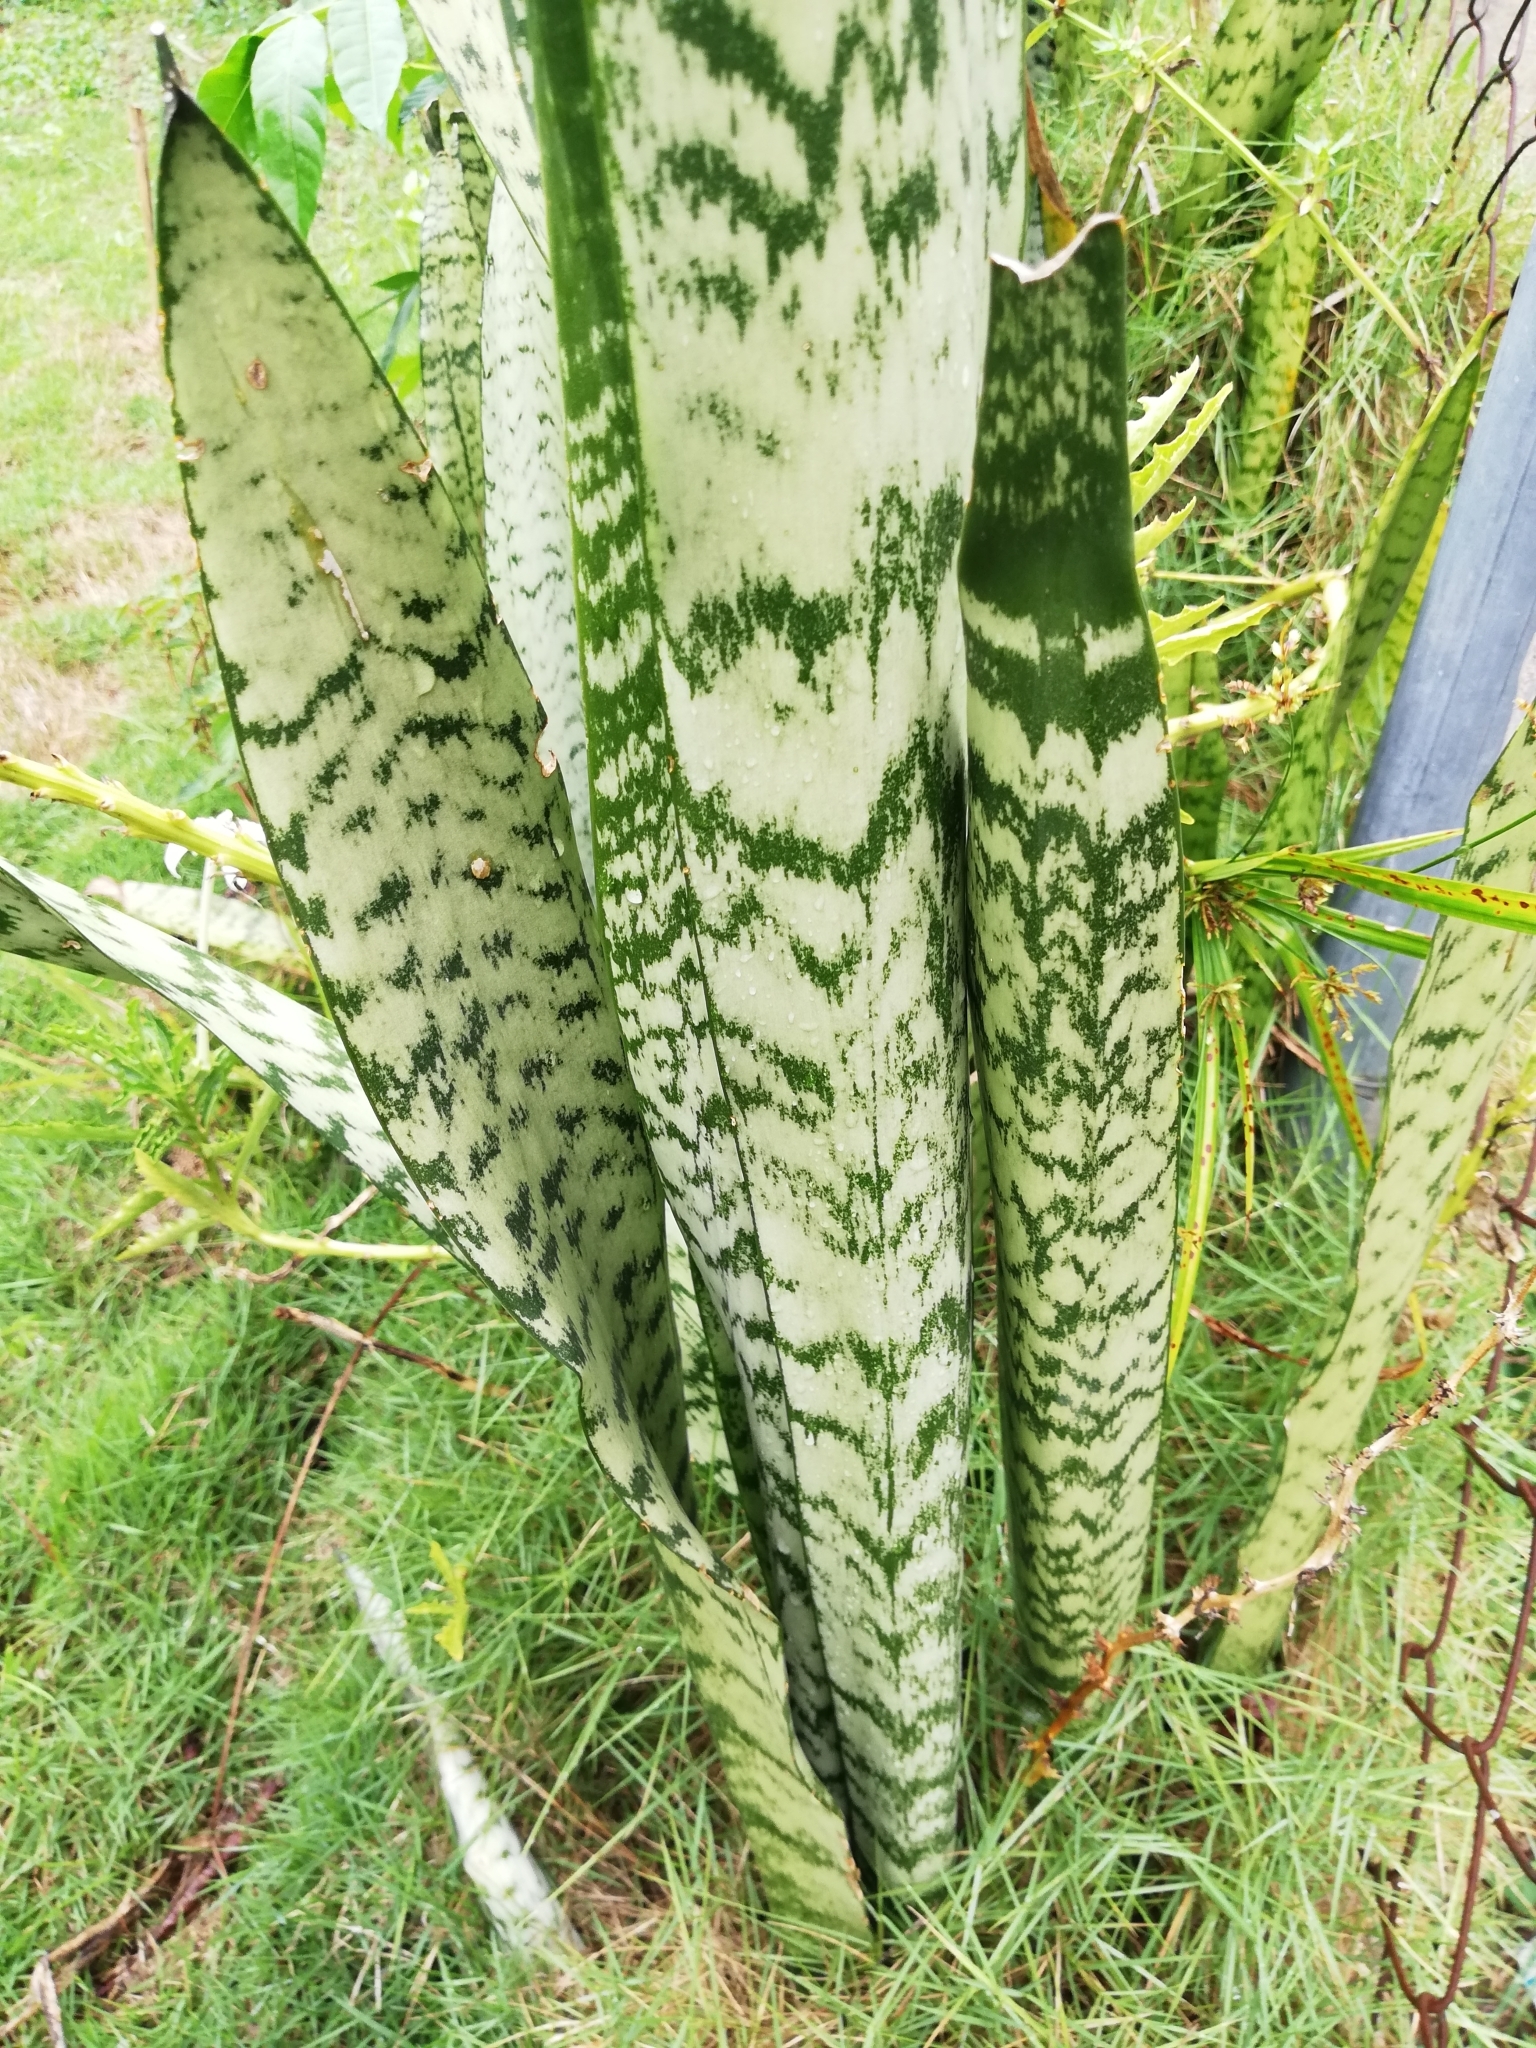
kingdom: Plantae
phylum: Tracheophyta
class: Liliopsida
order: Asparagales
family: Asparagaceae
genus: Dracaena
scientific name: Dracaena hyacinthoides
